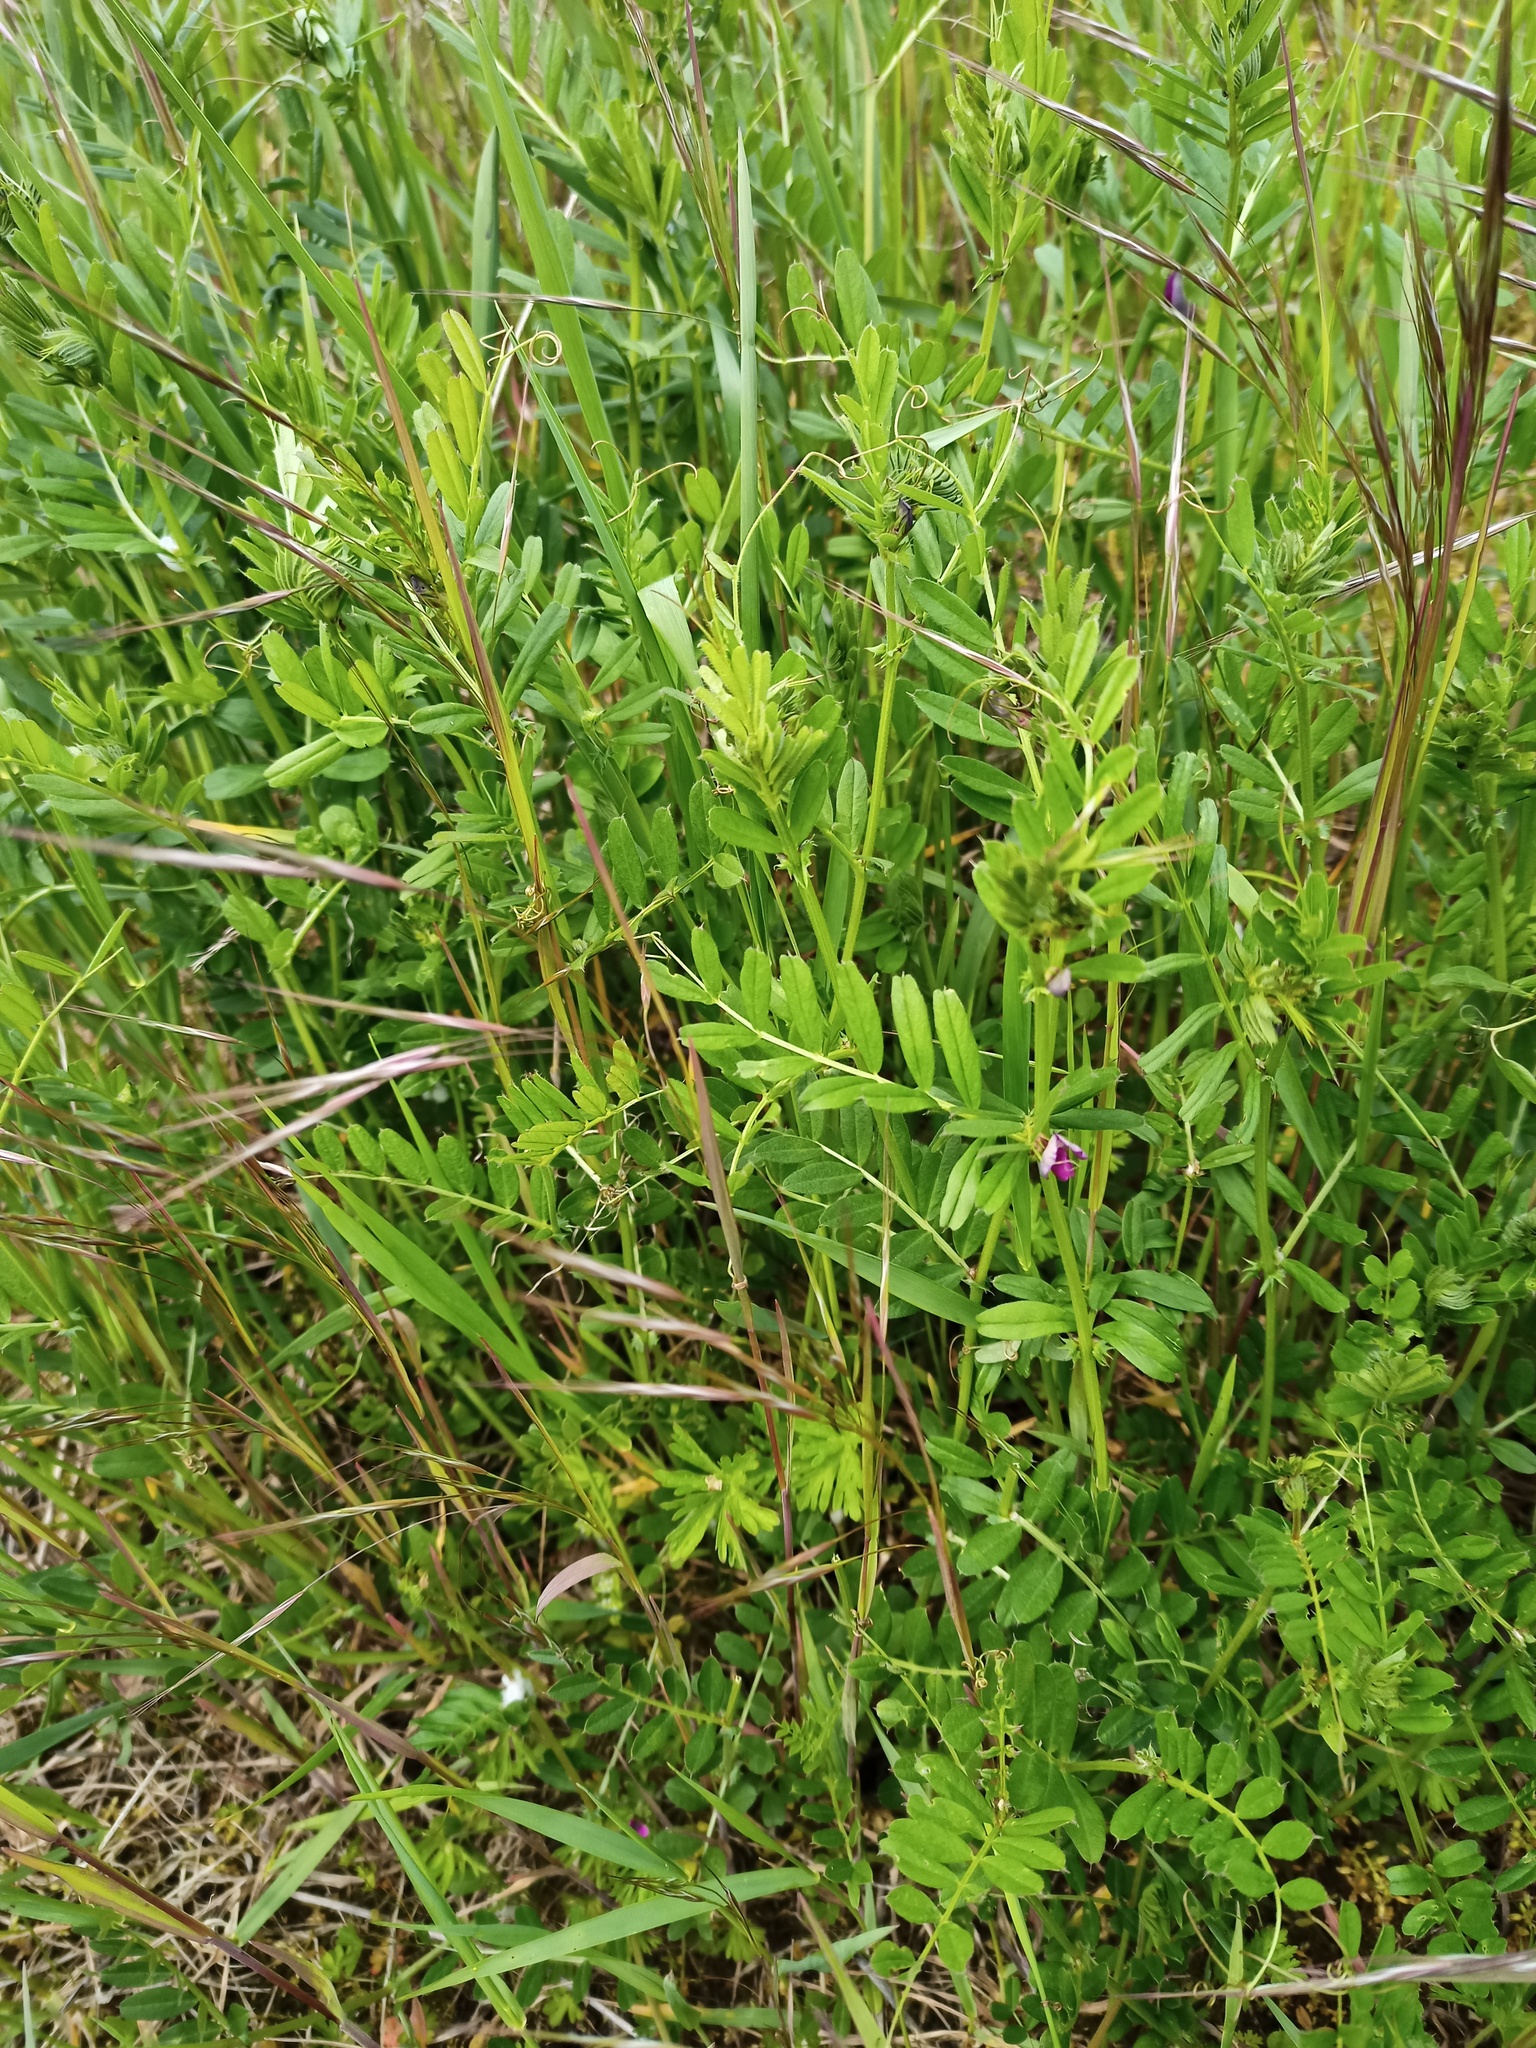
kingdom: Plantae
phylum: Tracheophyta
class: Magnoliopsida
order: Fabales
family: Fabaceae
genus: Vicia
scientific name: Vicia sativa
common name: Garden vetch
